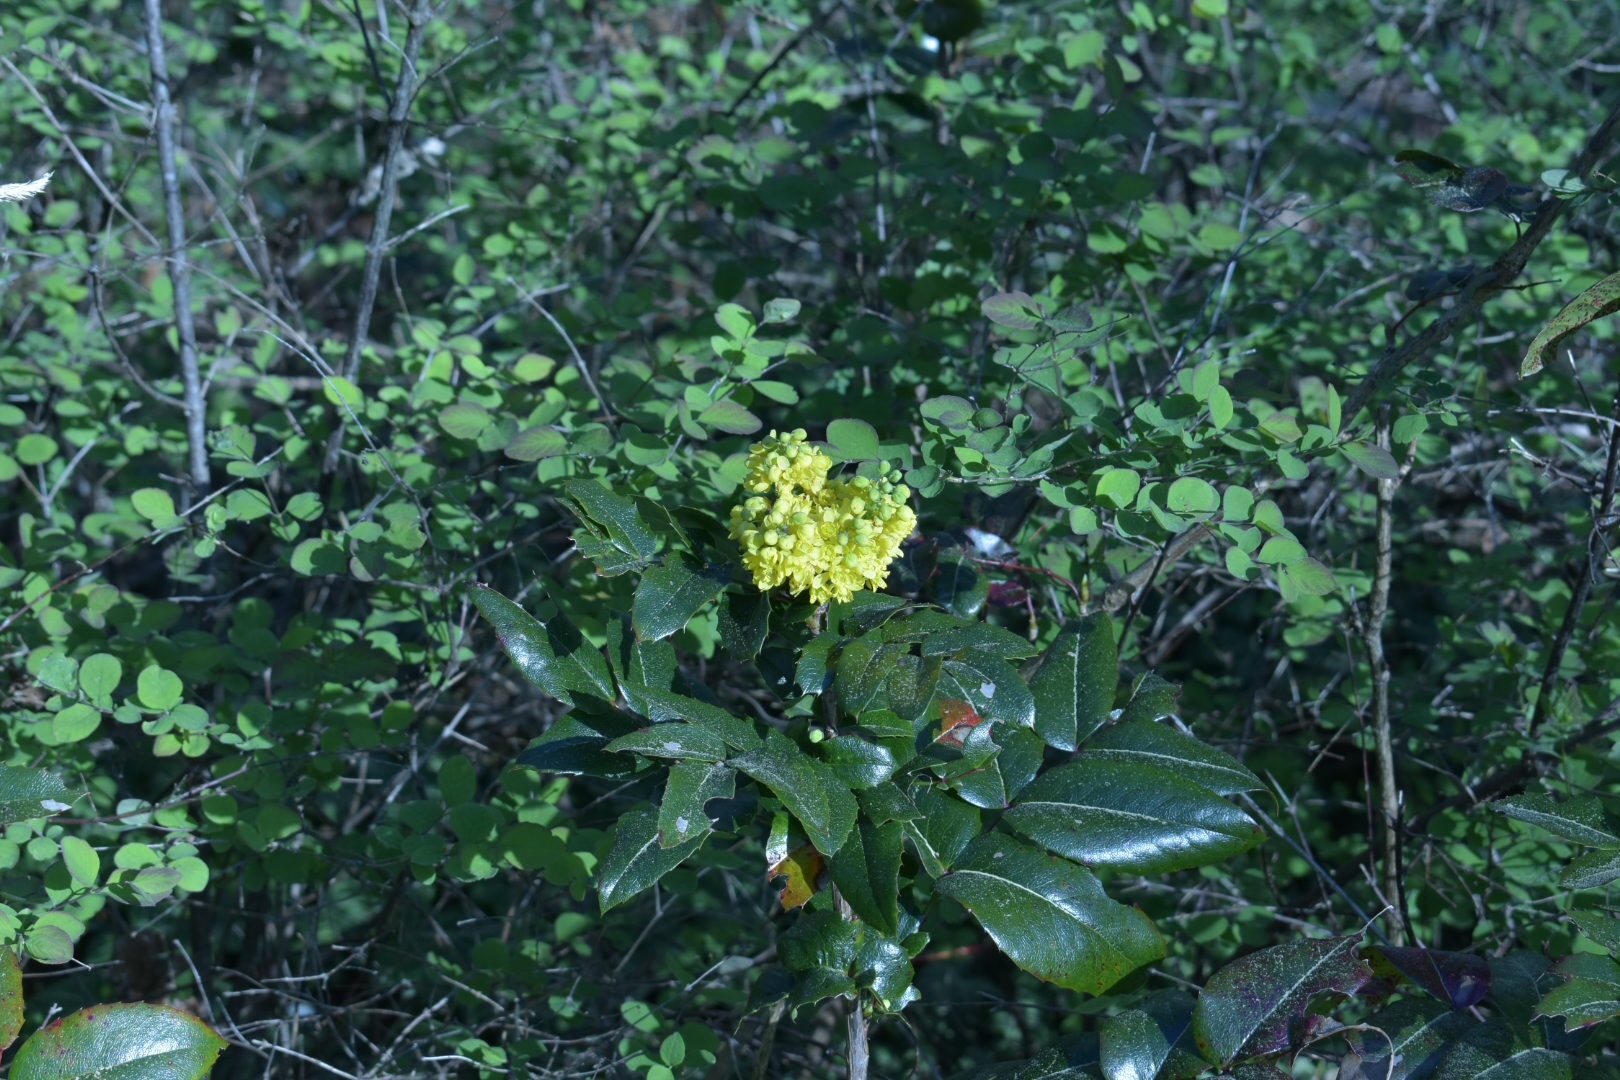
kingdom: Plantae
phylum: Tracheophyta
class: Magnoliopsida
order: Ranunculales
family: Berberidaceae
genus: Mahonia
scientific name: Mahonia aquifolium
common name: Oregon-grape
